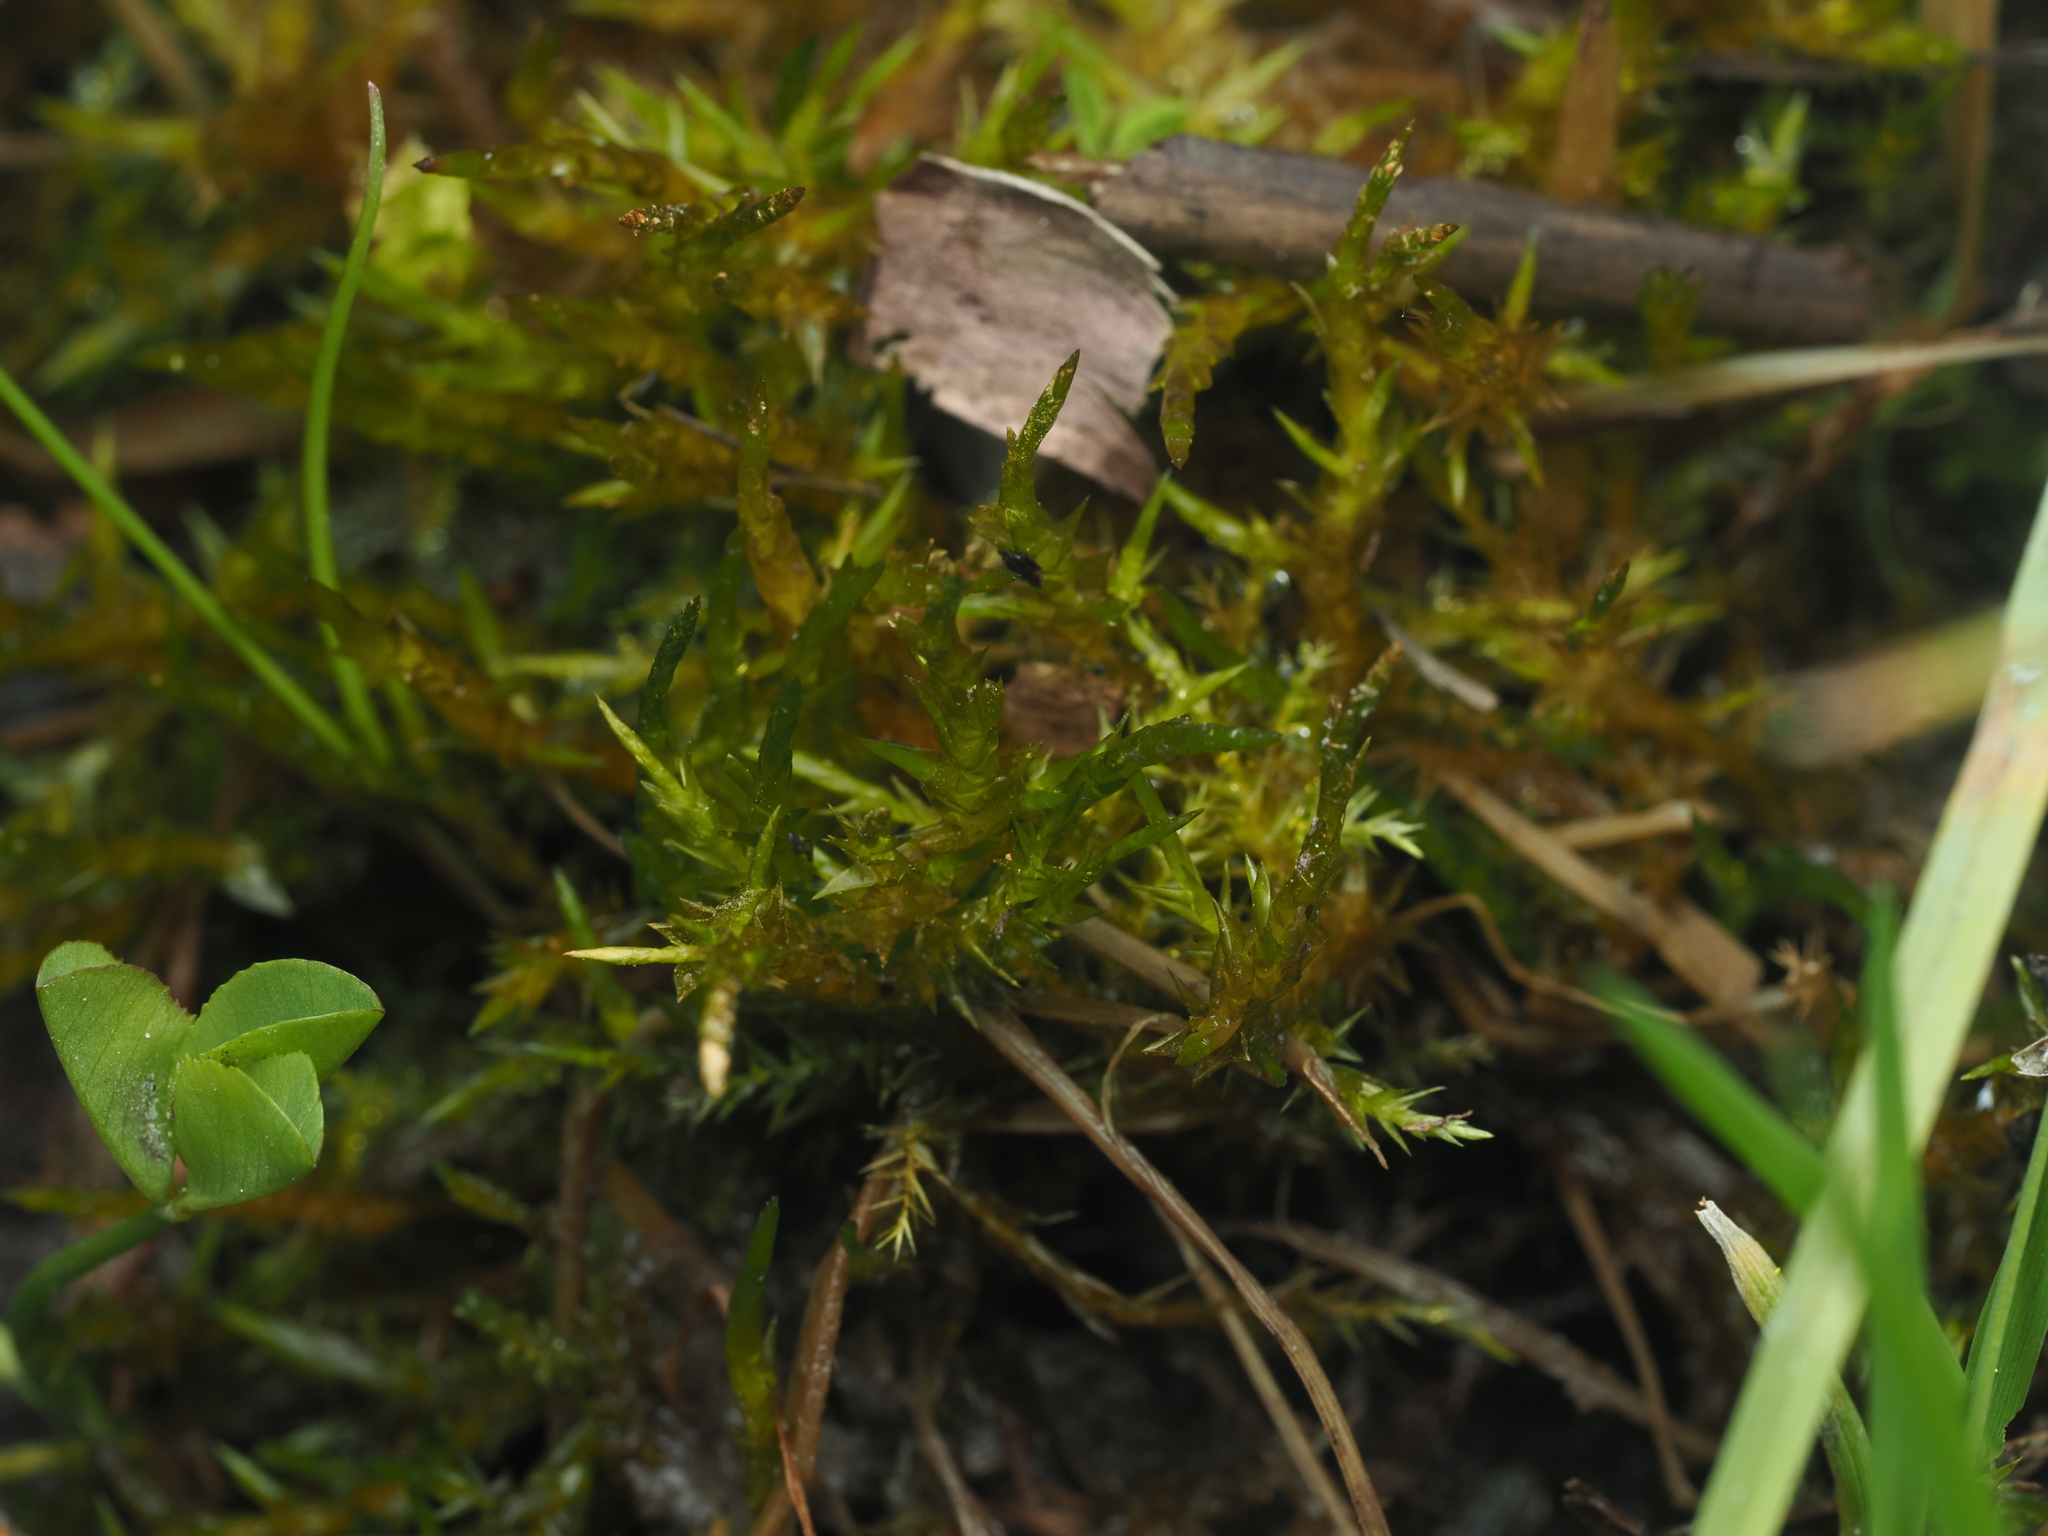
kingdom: Plantae
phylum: Bryophyta
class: Bryopsida
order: Hypnales
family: Pylaisiaceae
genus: Calliergonella
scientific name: Calliergonella cuspidata
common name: Common large wetland moss
